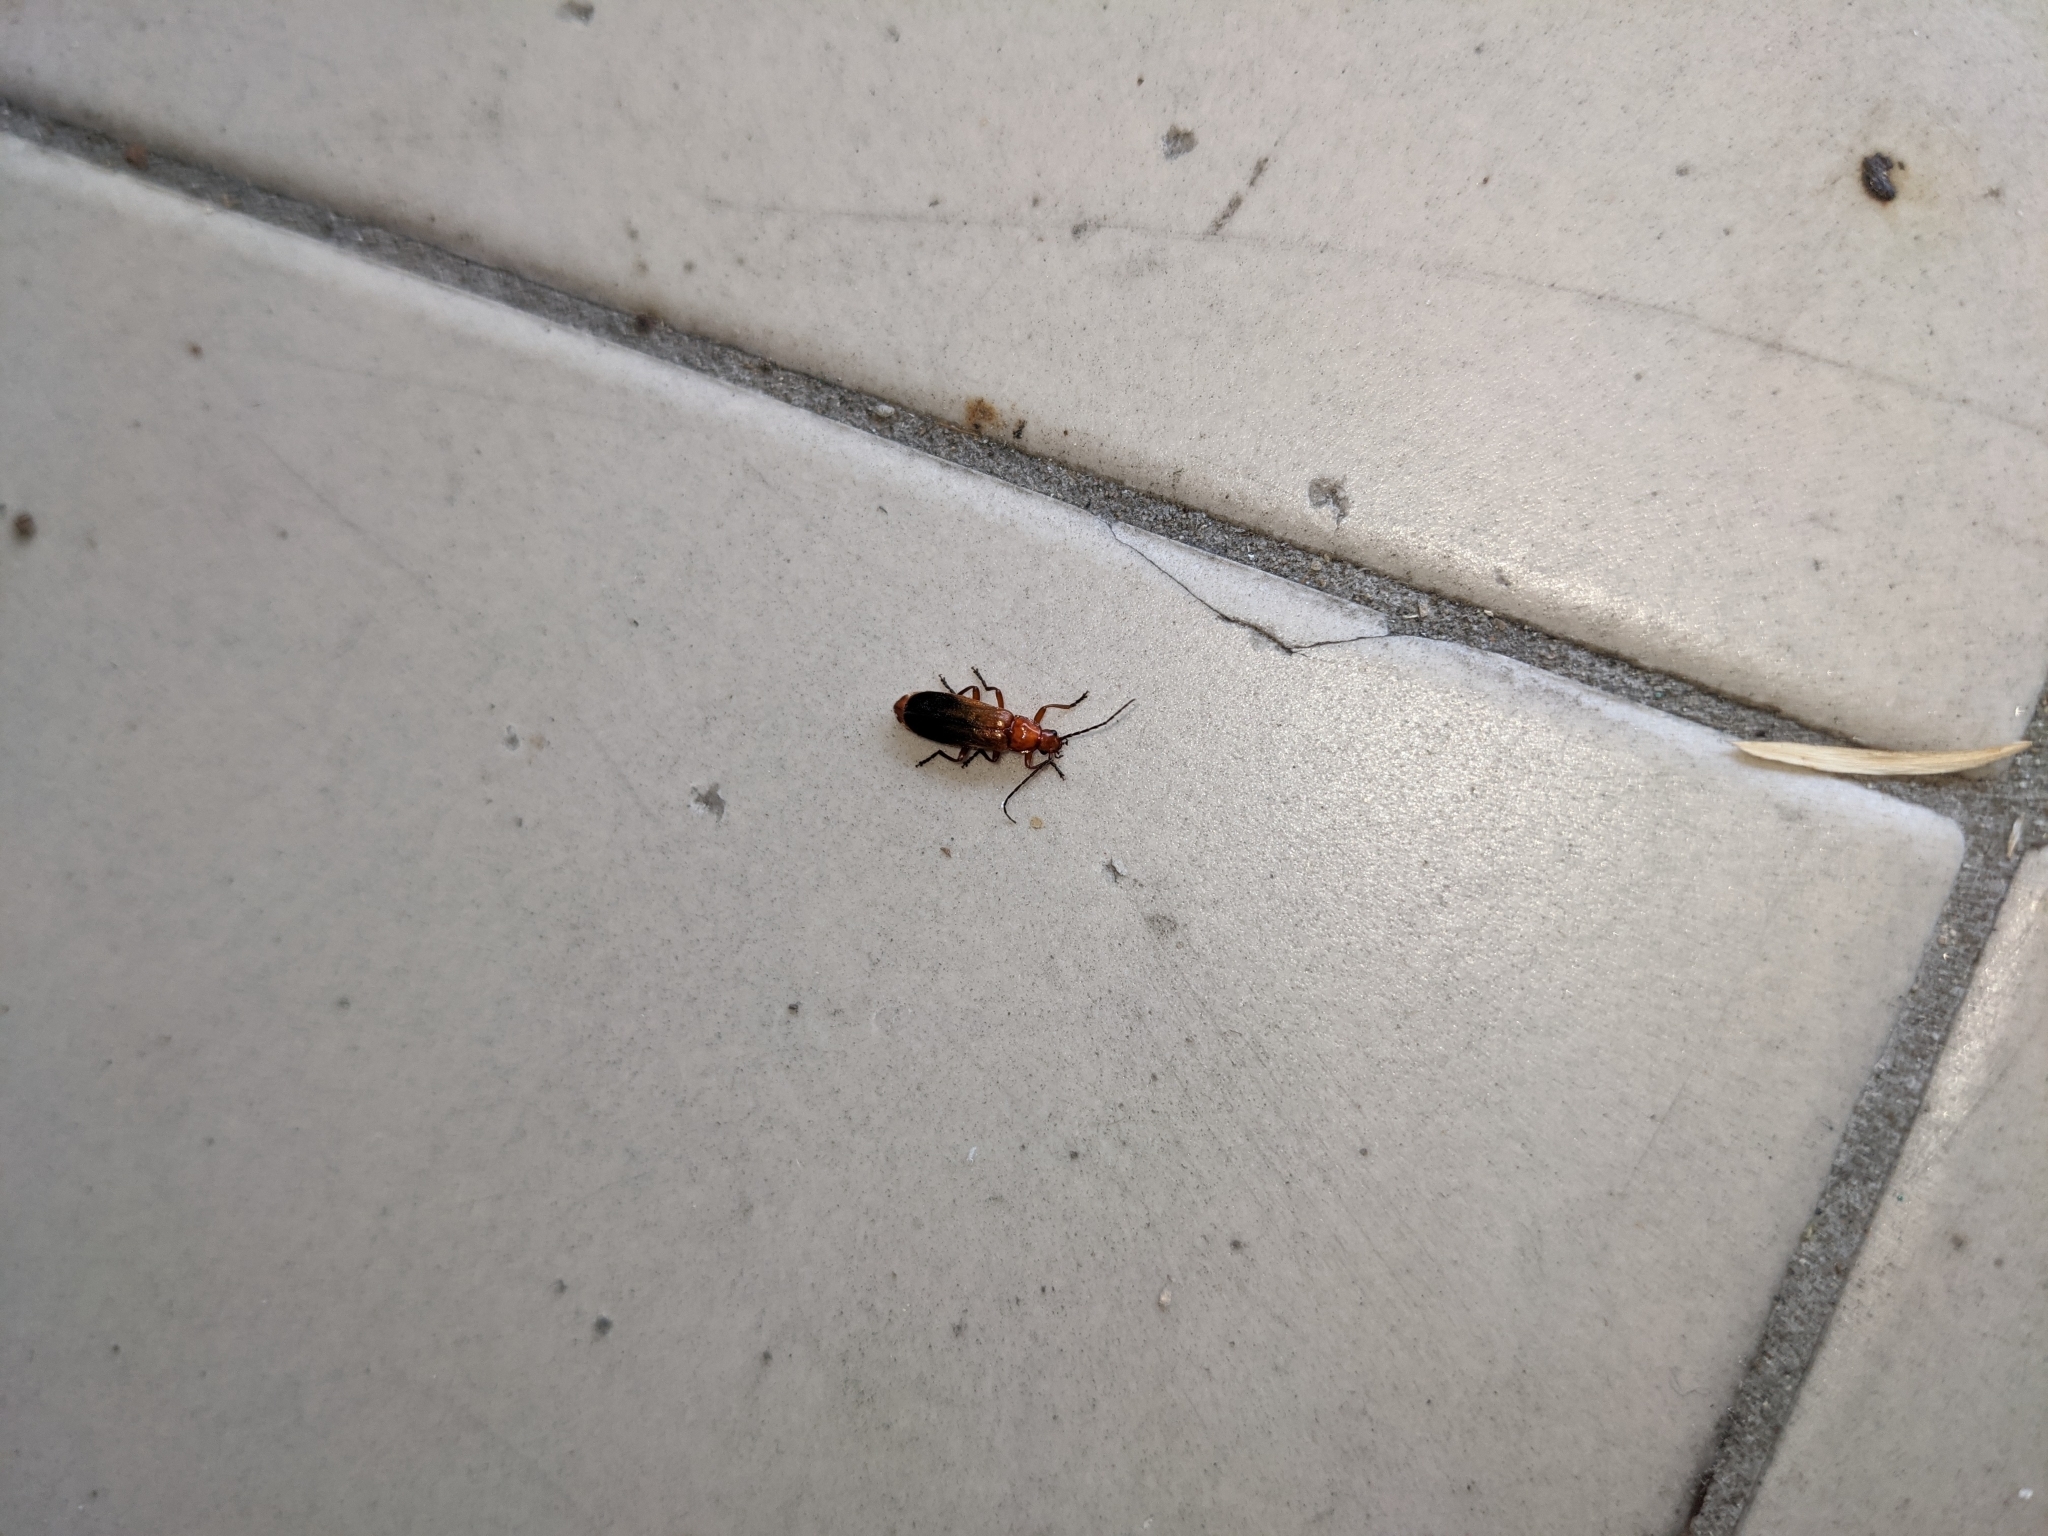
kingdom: Animalia
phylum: Arthropoda
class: Insecta
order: Coleoptera
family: Cantharidae
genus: Rhagonycha
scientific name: Rhagonycha fulva
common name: Common red soldier beetle
